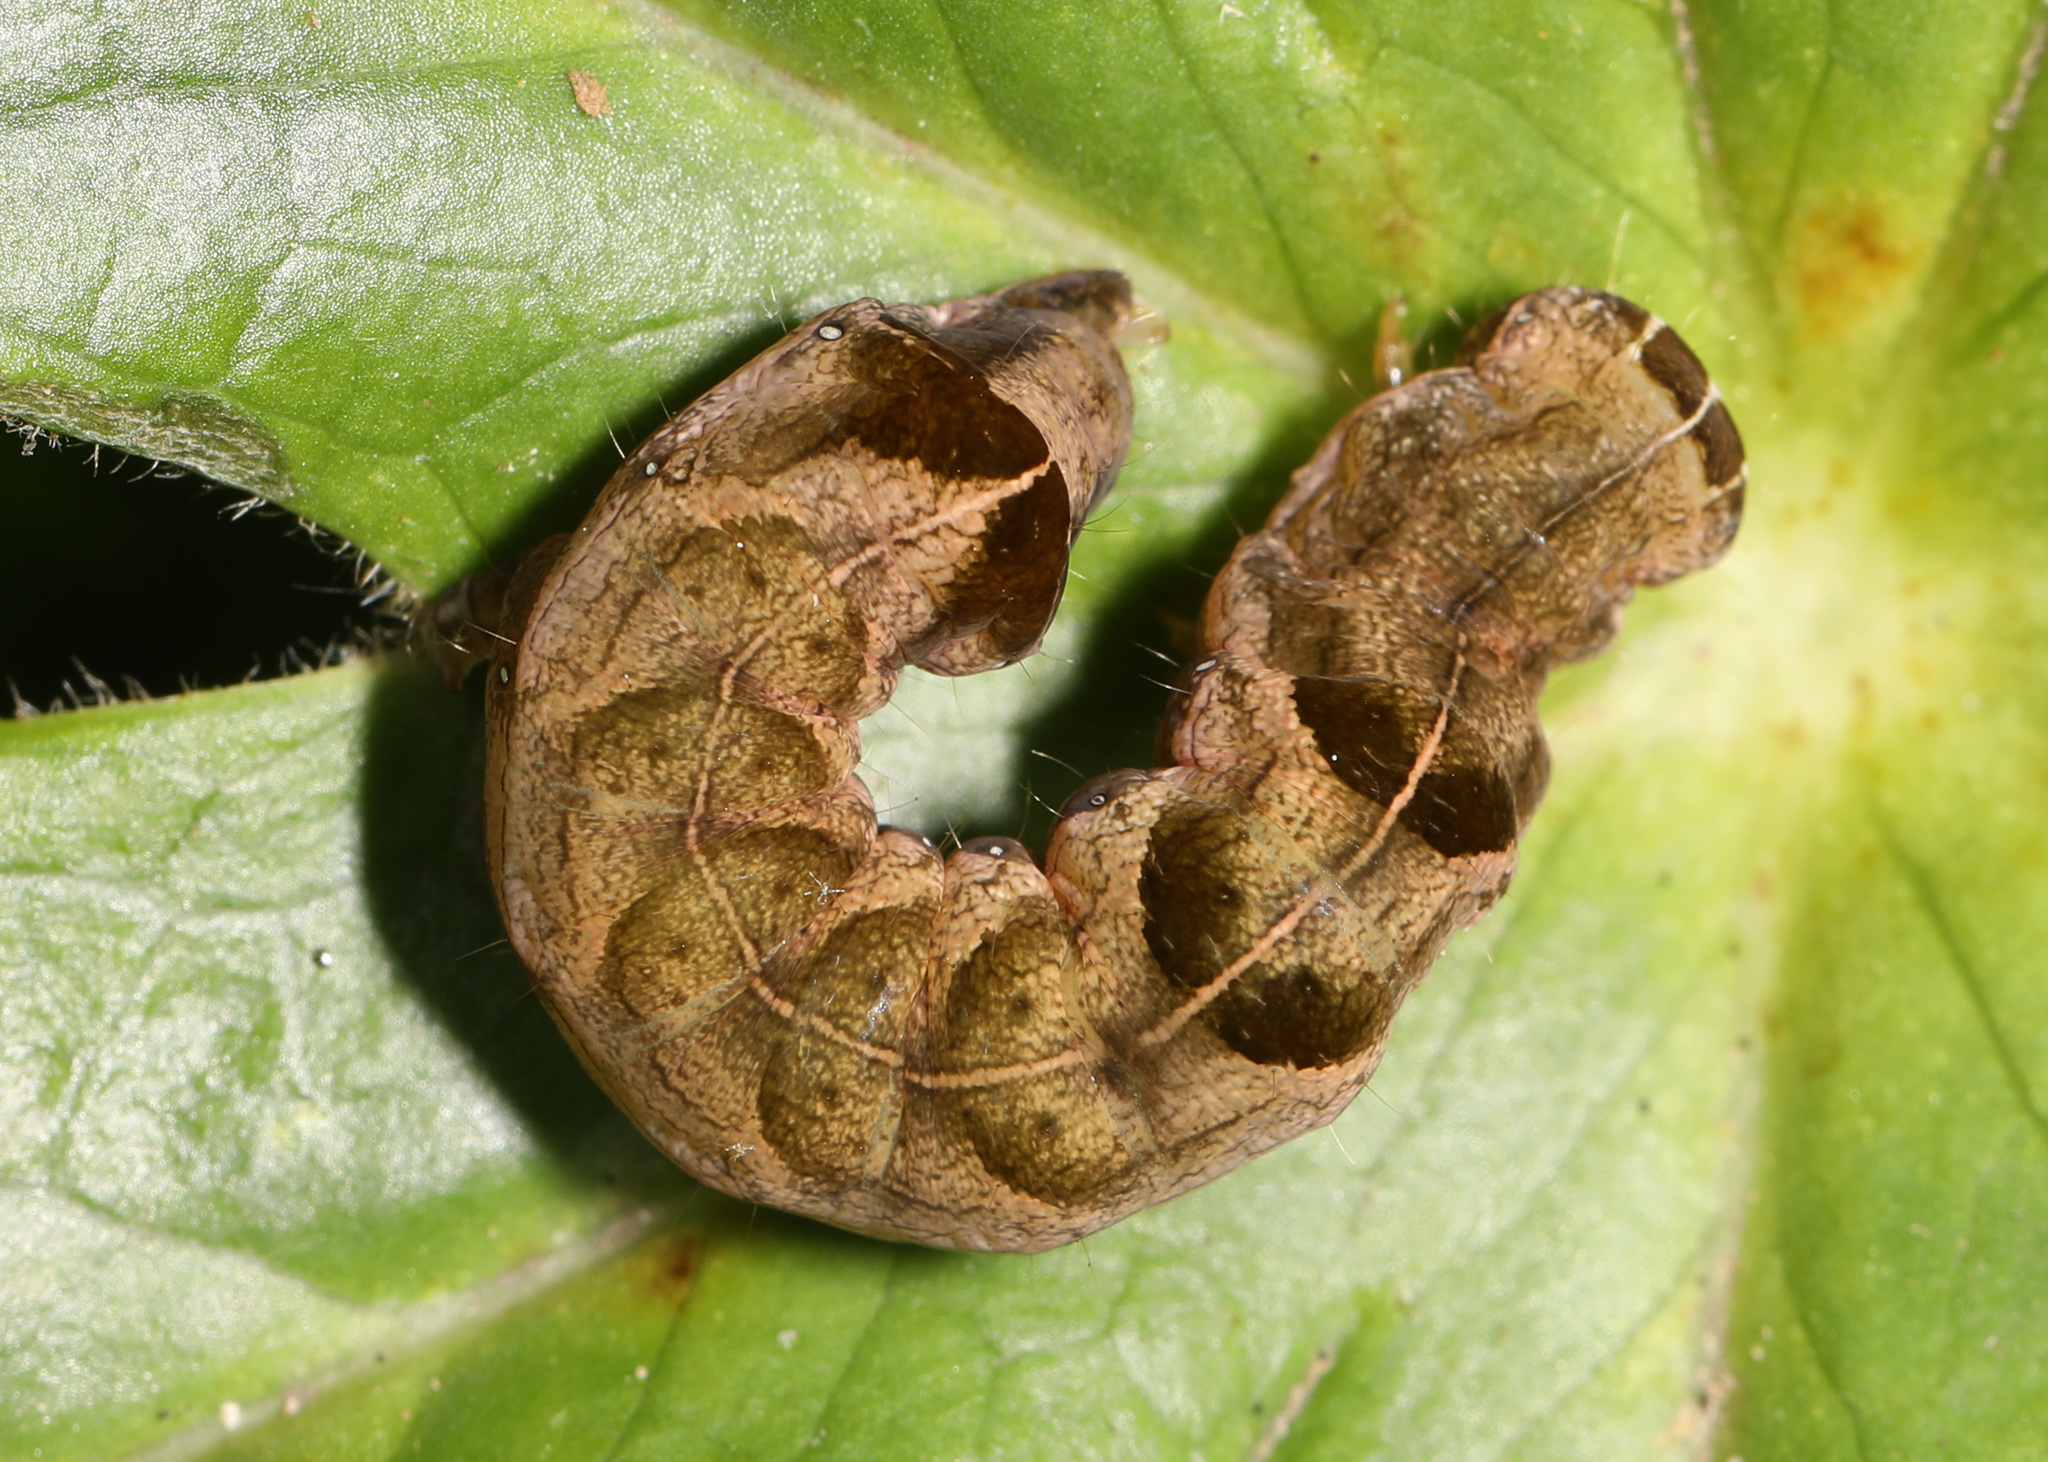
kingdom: Animalia
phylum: Arthropoda
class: Insecta
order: Lepidoptera
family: Noctuidae
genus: Melanchra
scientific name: Melanchra adjuncta
